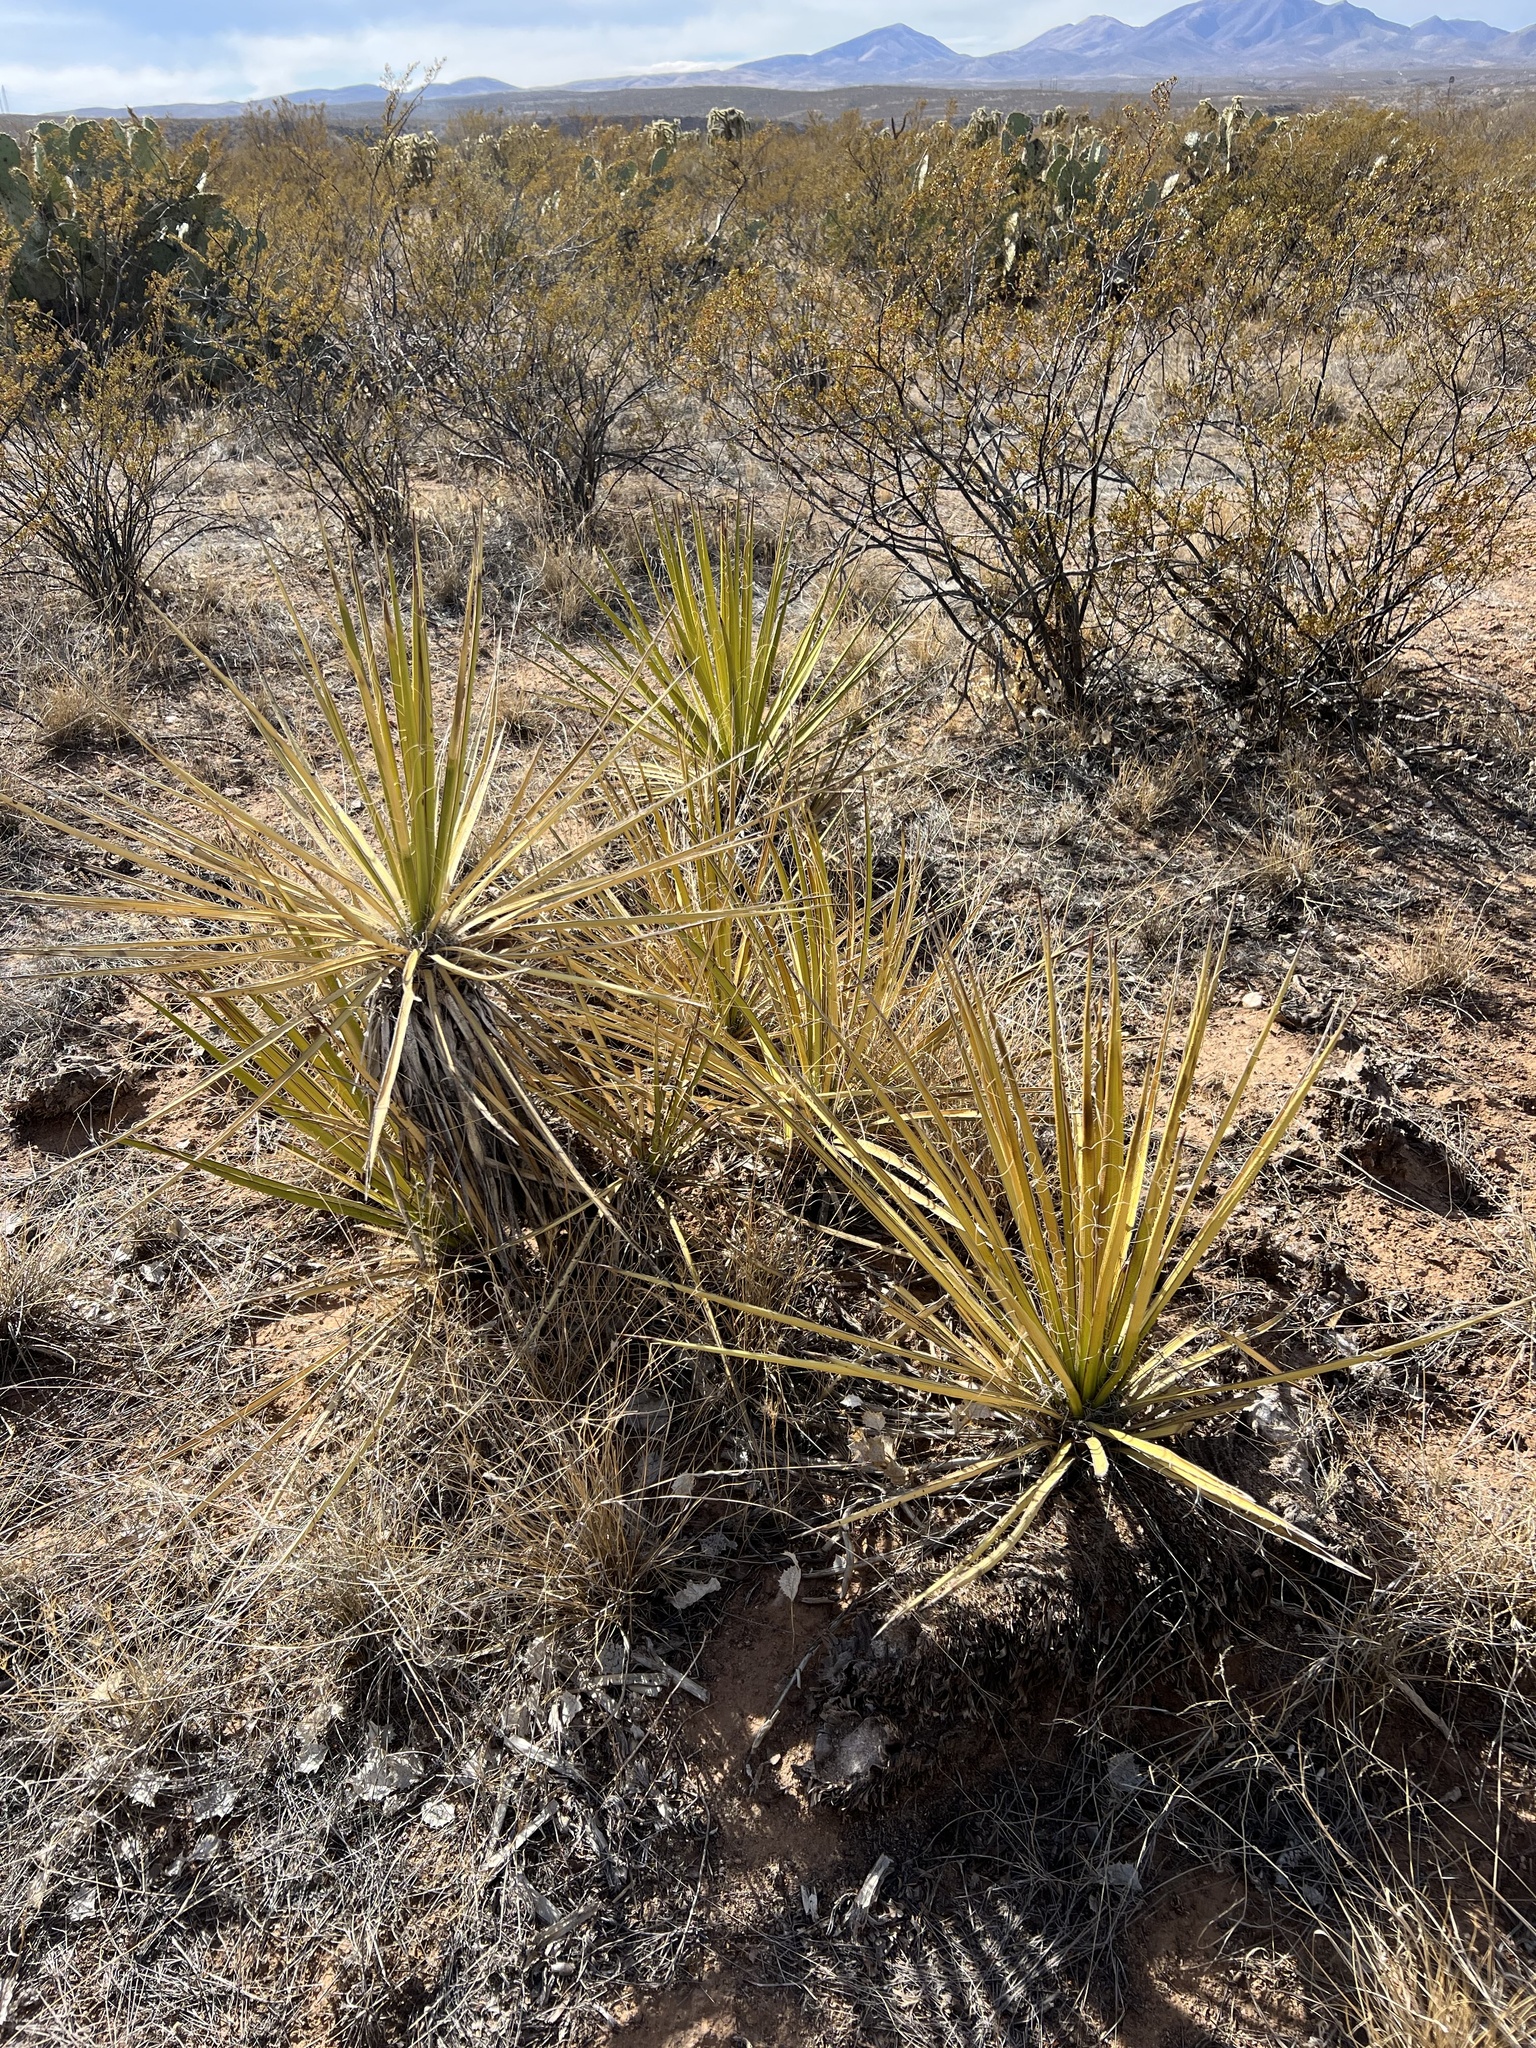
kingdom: Plantae
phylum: Tracheophyta
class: Liliopsida
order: Asparagales
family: Asparagaceae
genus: Yucca
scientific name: Yucca baccata
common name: Banana yucca
